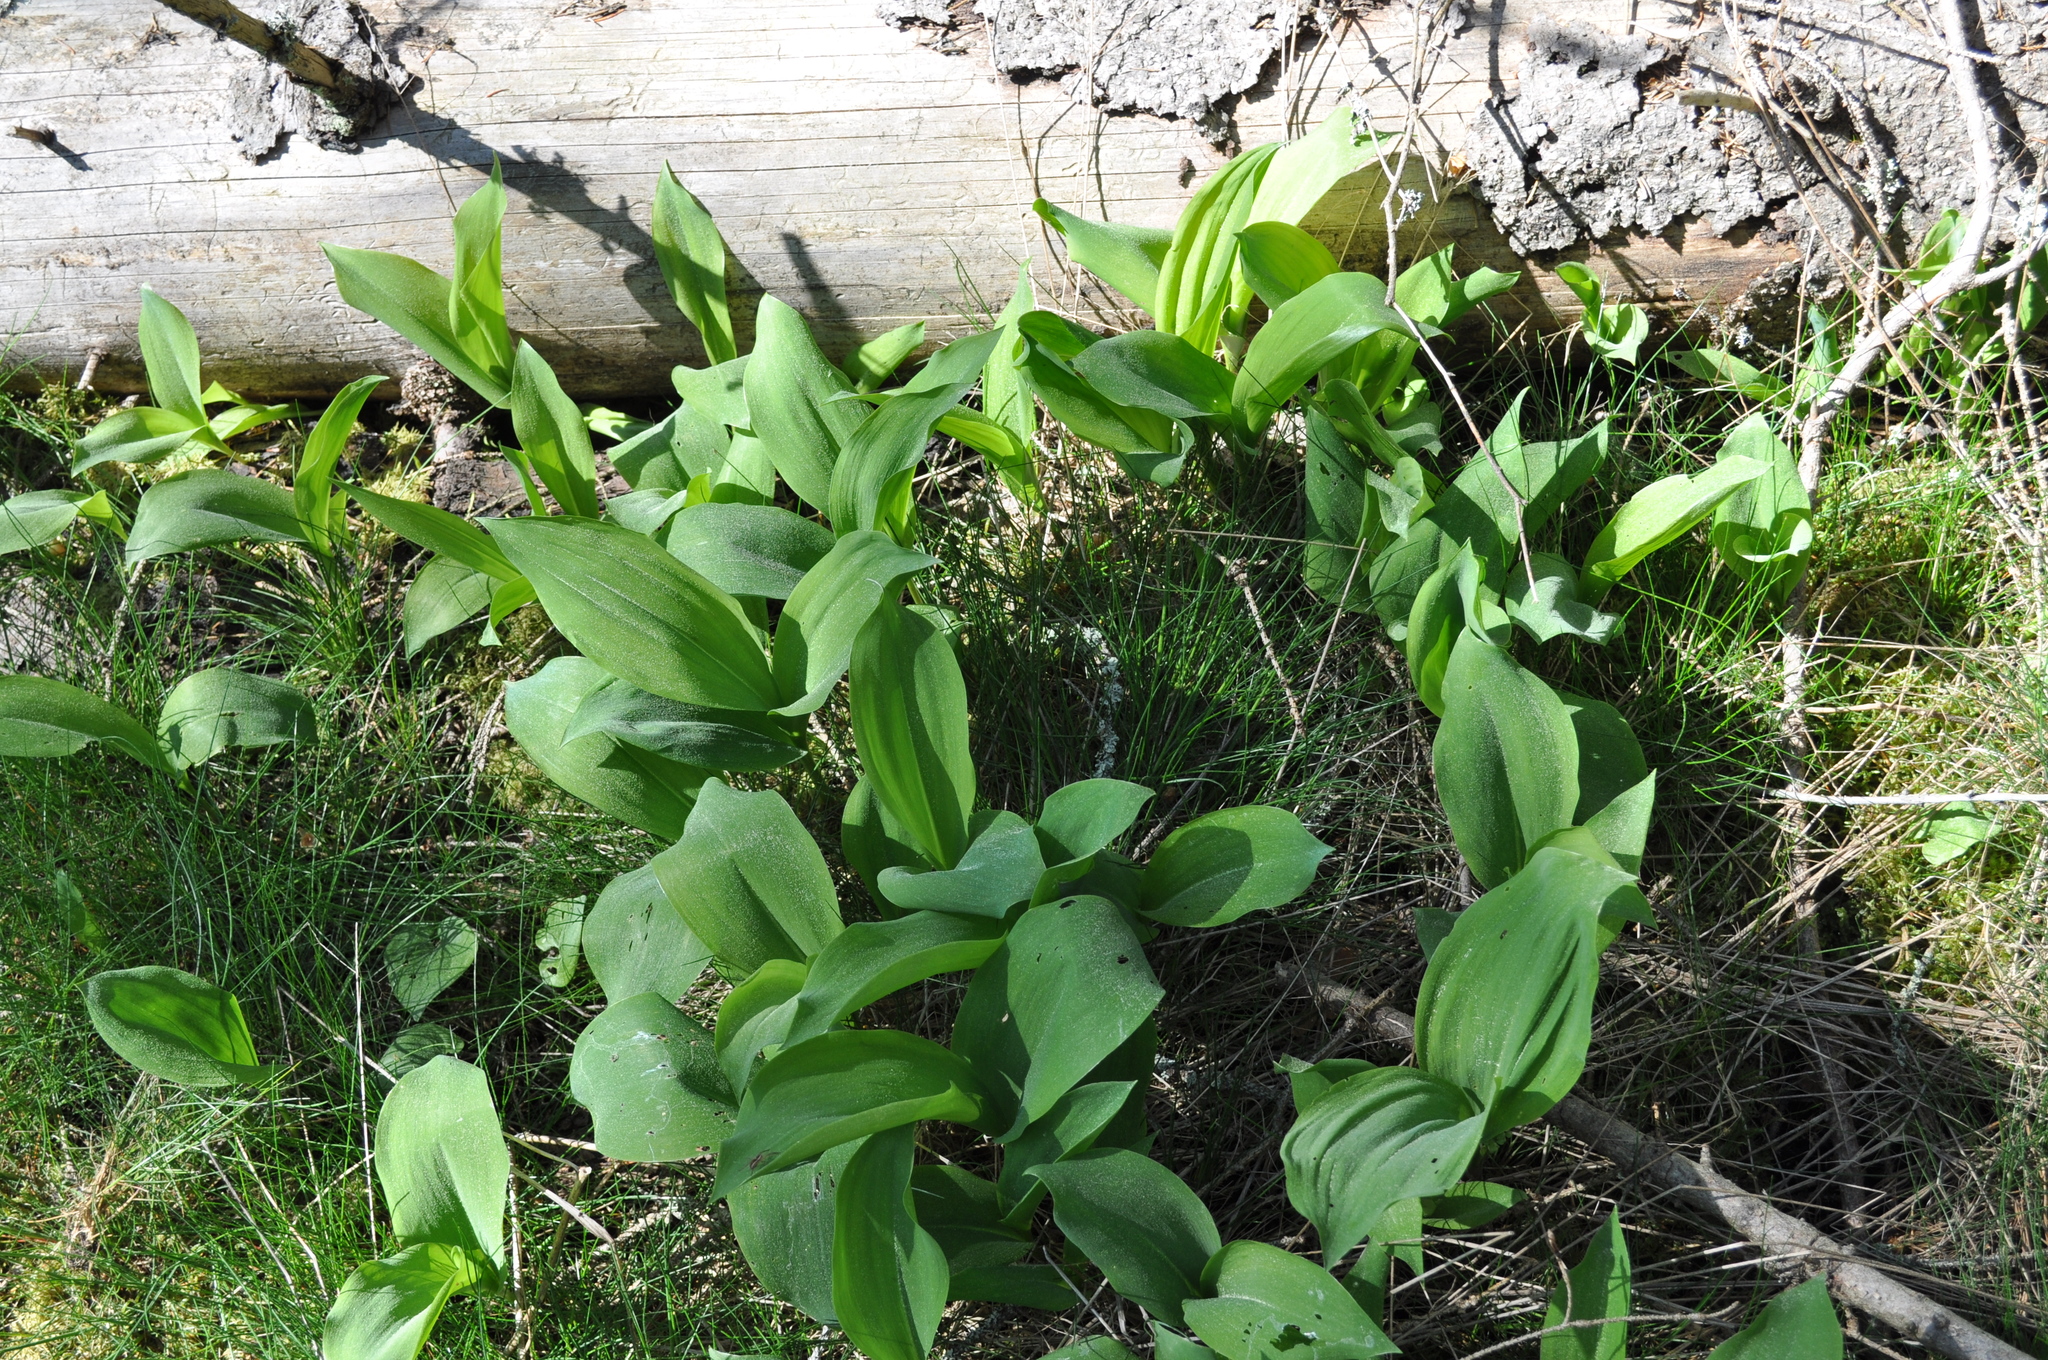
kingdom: Plantae
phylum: Tracheophyta
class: Liliopsida
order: Asparagales
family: Asparagaceae
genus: Convallaria
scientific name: Convallaria majalis
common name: Lily-of-the-valley
